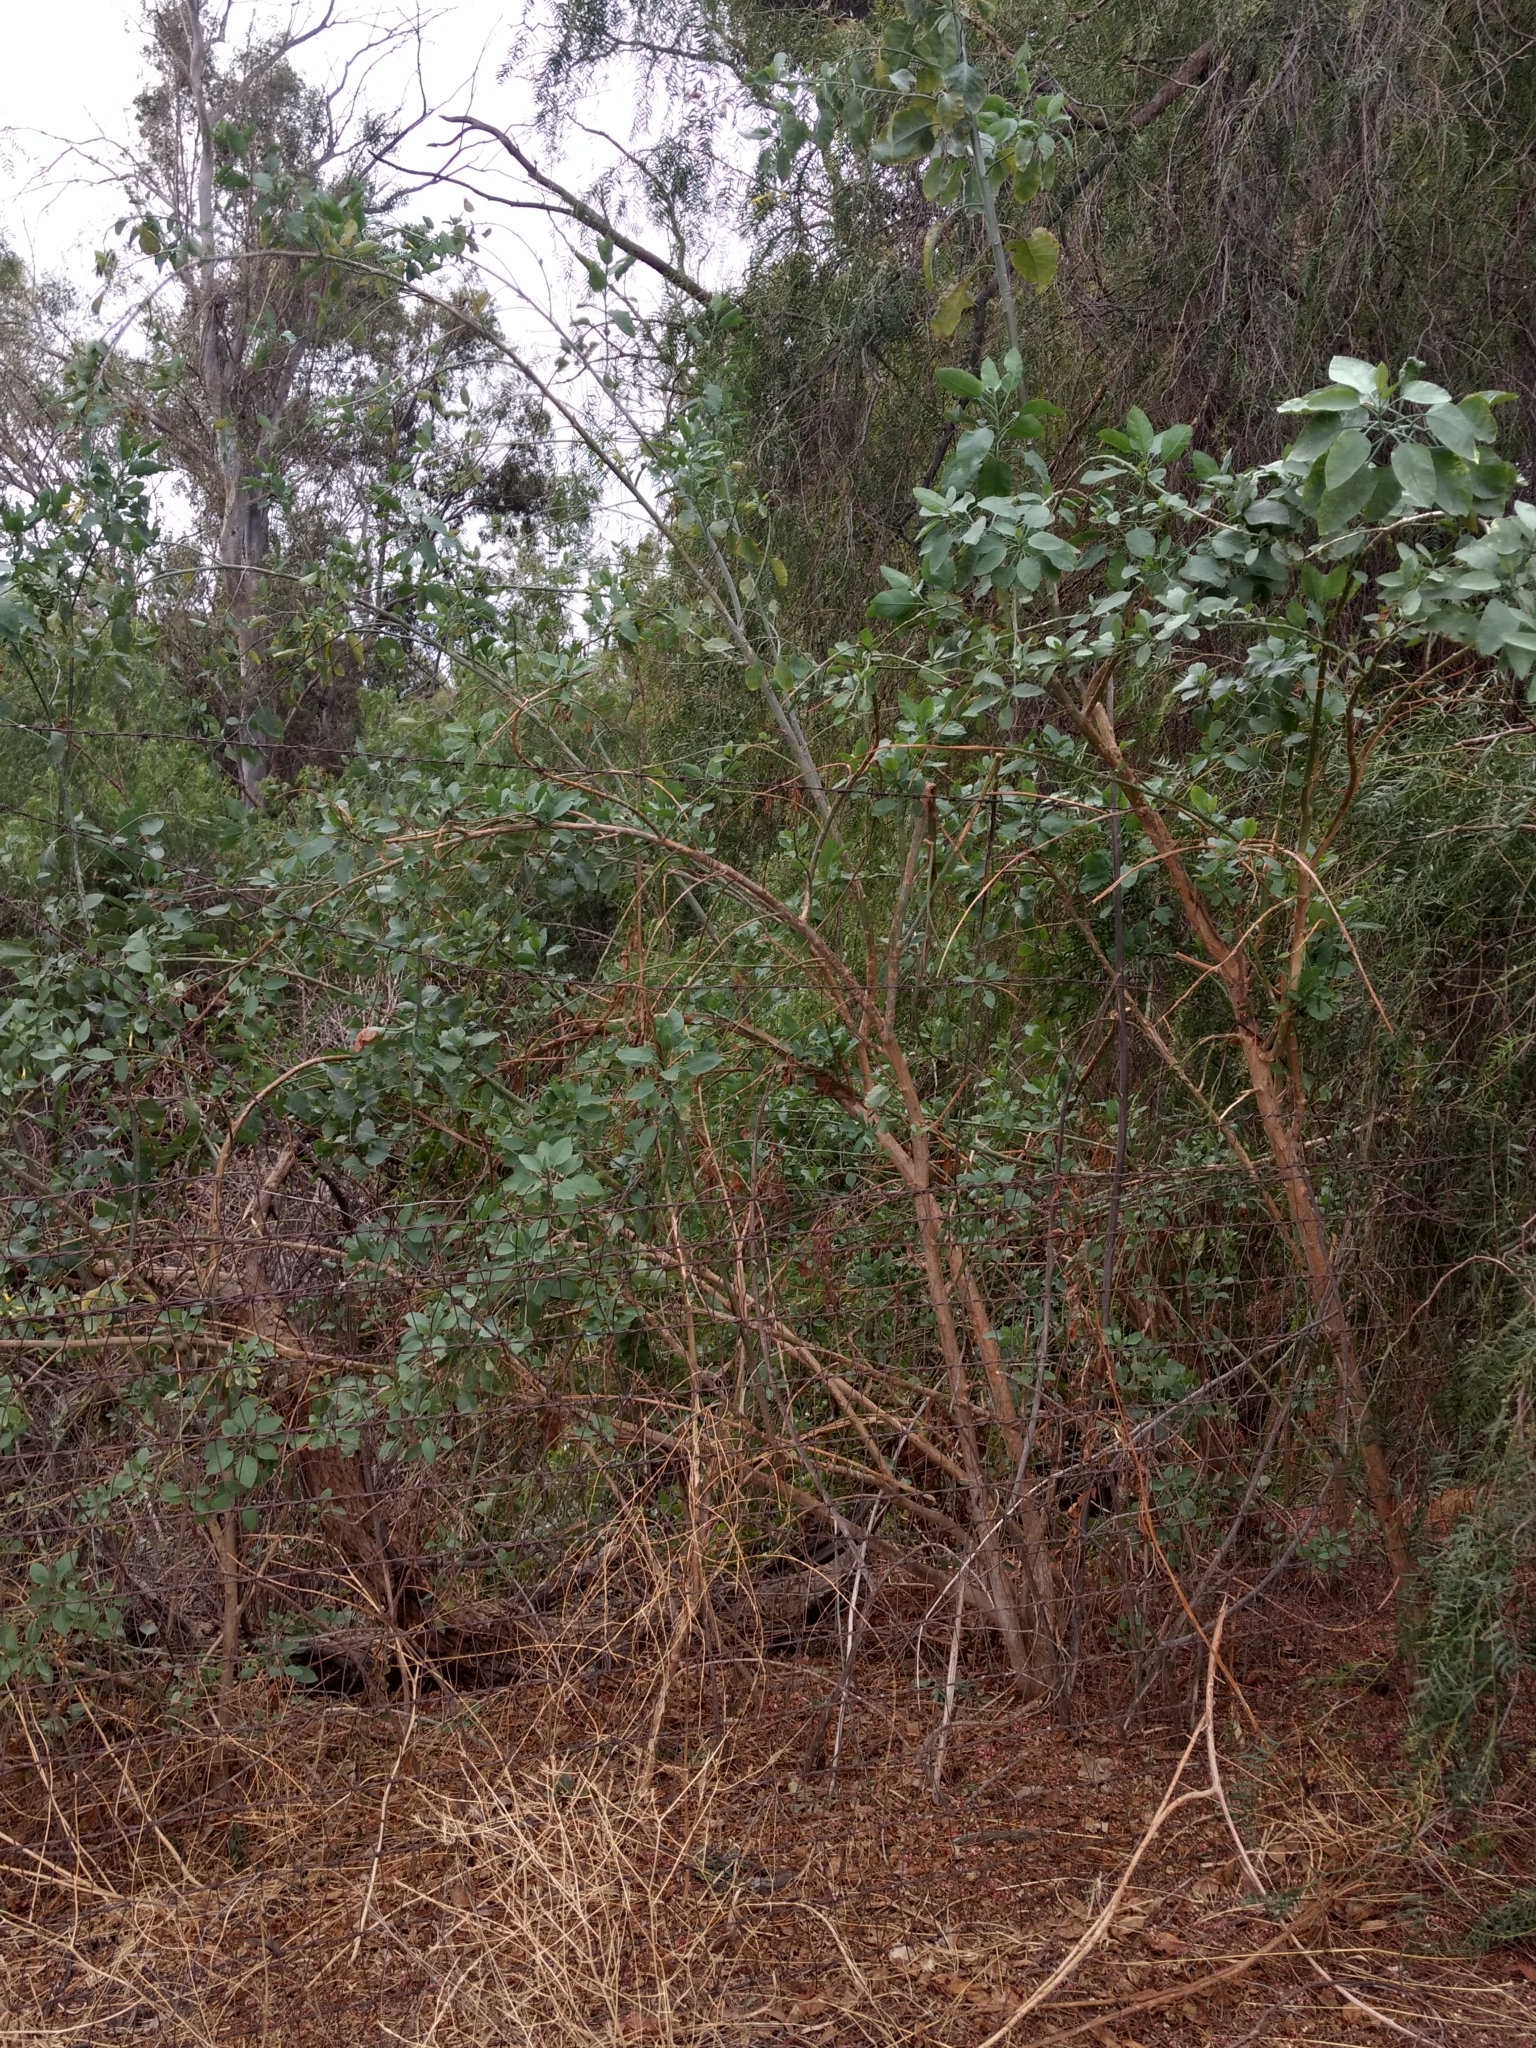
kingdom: Plantae
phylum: Tracheophyta
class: Magnoliopsida
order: Solanales
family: Solanaceae
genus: Nicotiana
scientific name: Nicotiana glauca
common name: Tree tobacco
